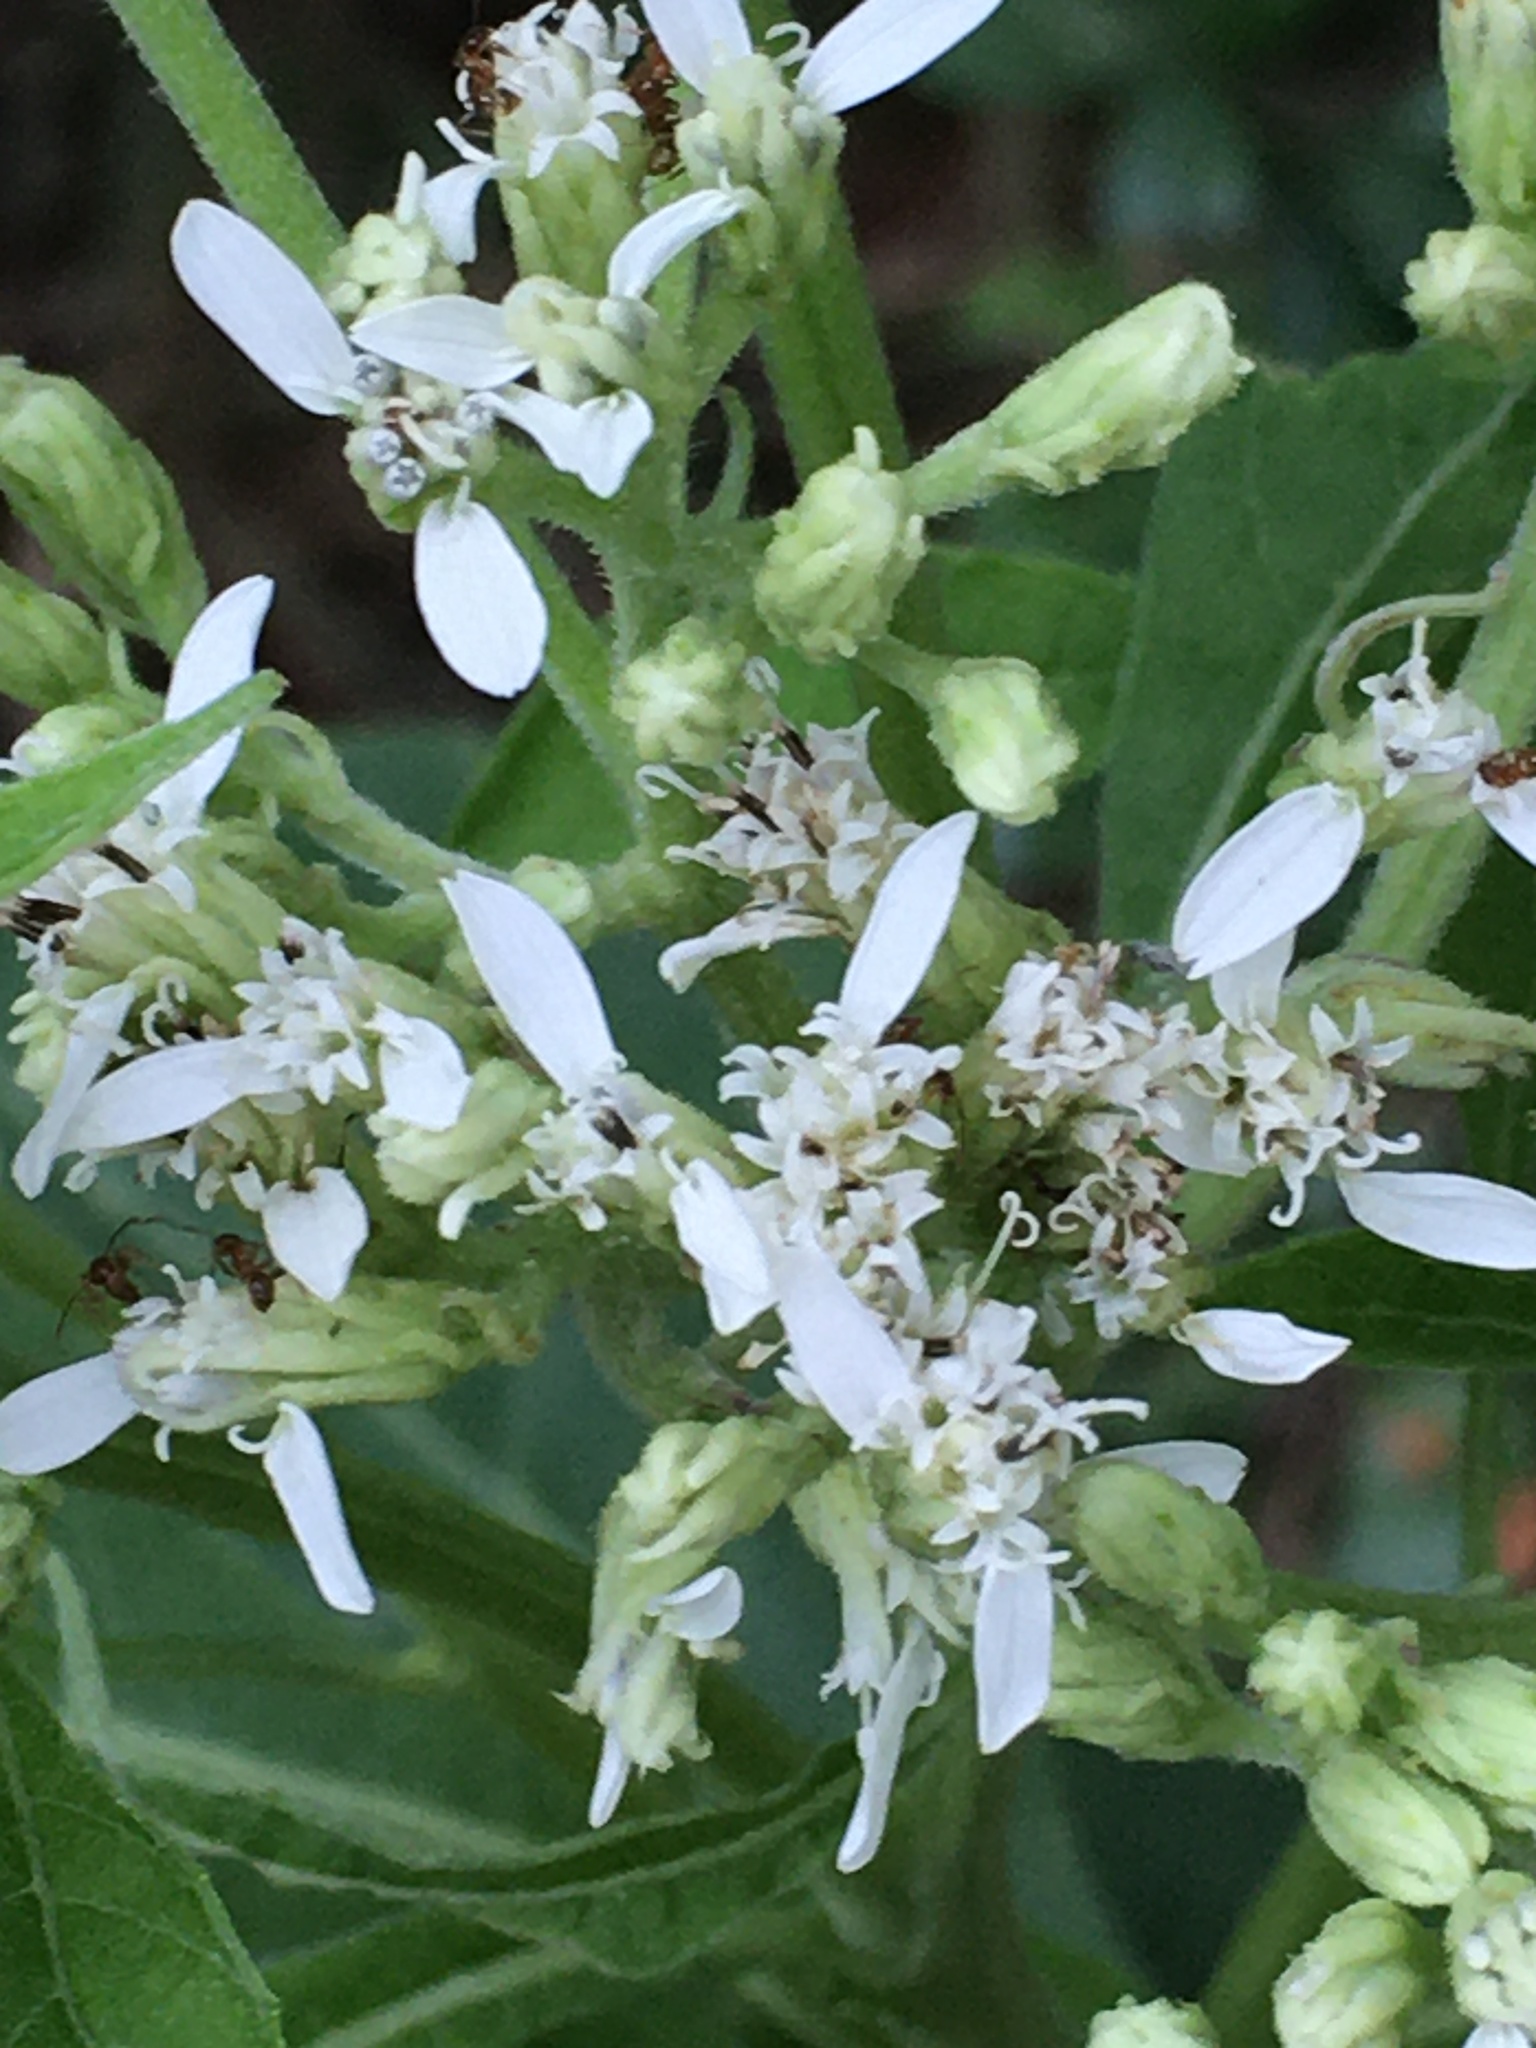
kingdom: Plantae
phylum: Tracheophyta
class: Magnoliopsida
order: Asterales
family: Asteraceae
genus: Verbesina
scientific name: Verbesina virginica
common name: Frostweed
